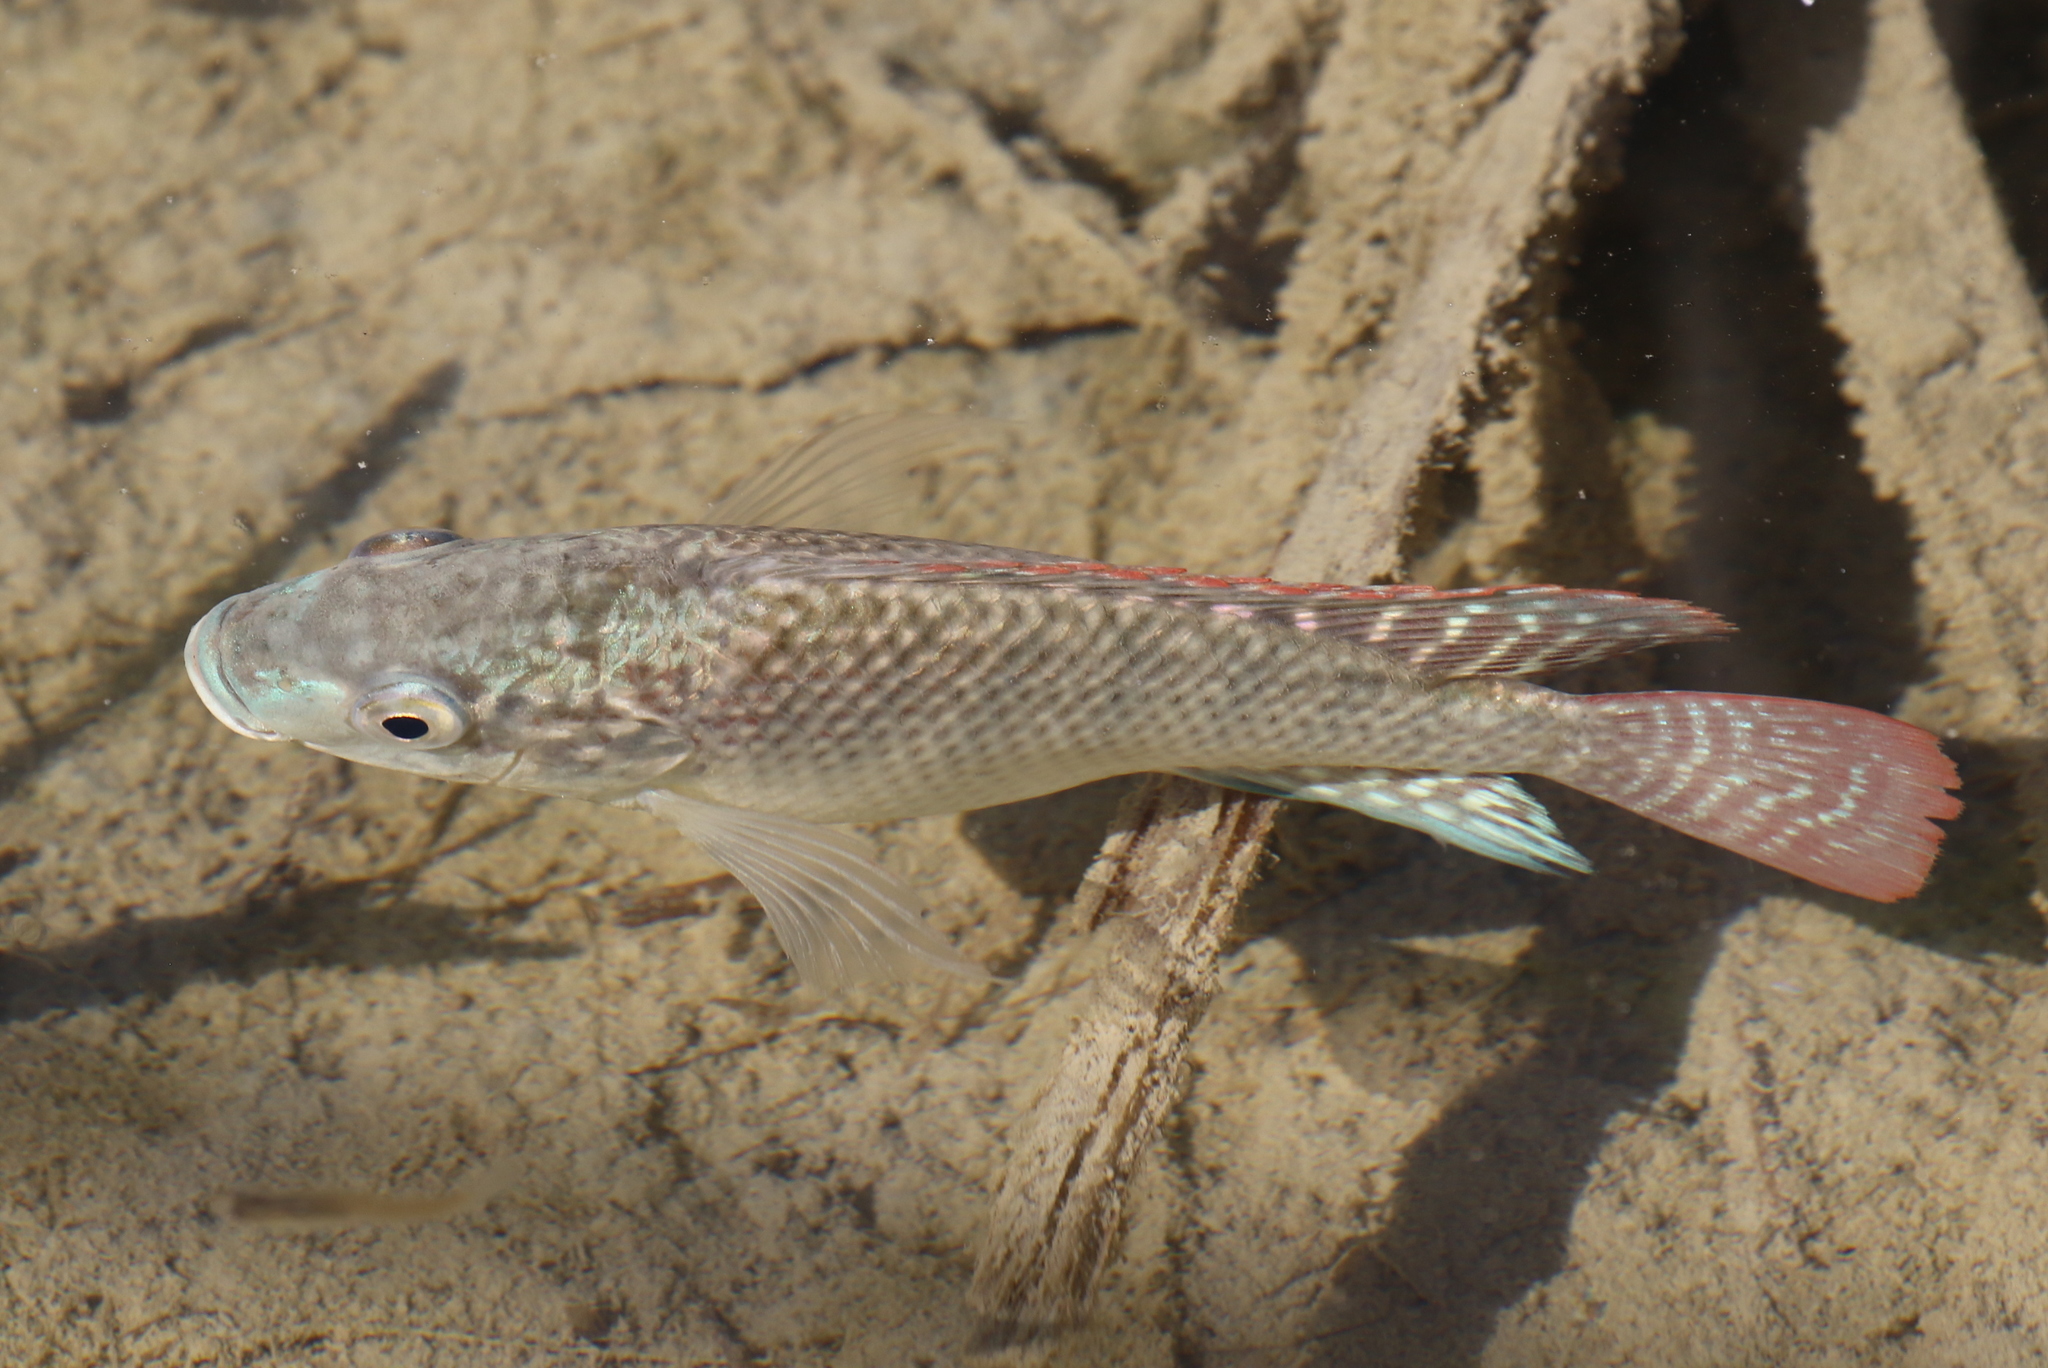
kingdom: Animalia
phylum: Chordata
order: Perciformes
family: Cichlidae
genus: Oreochromis
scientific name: Oreochromis aureus
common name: Blue tilapia
